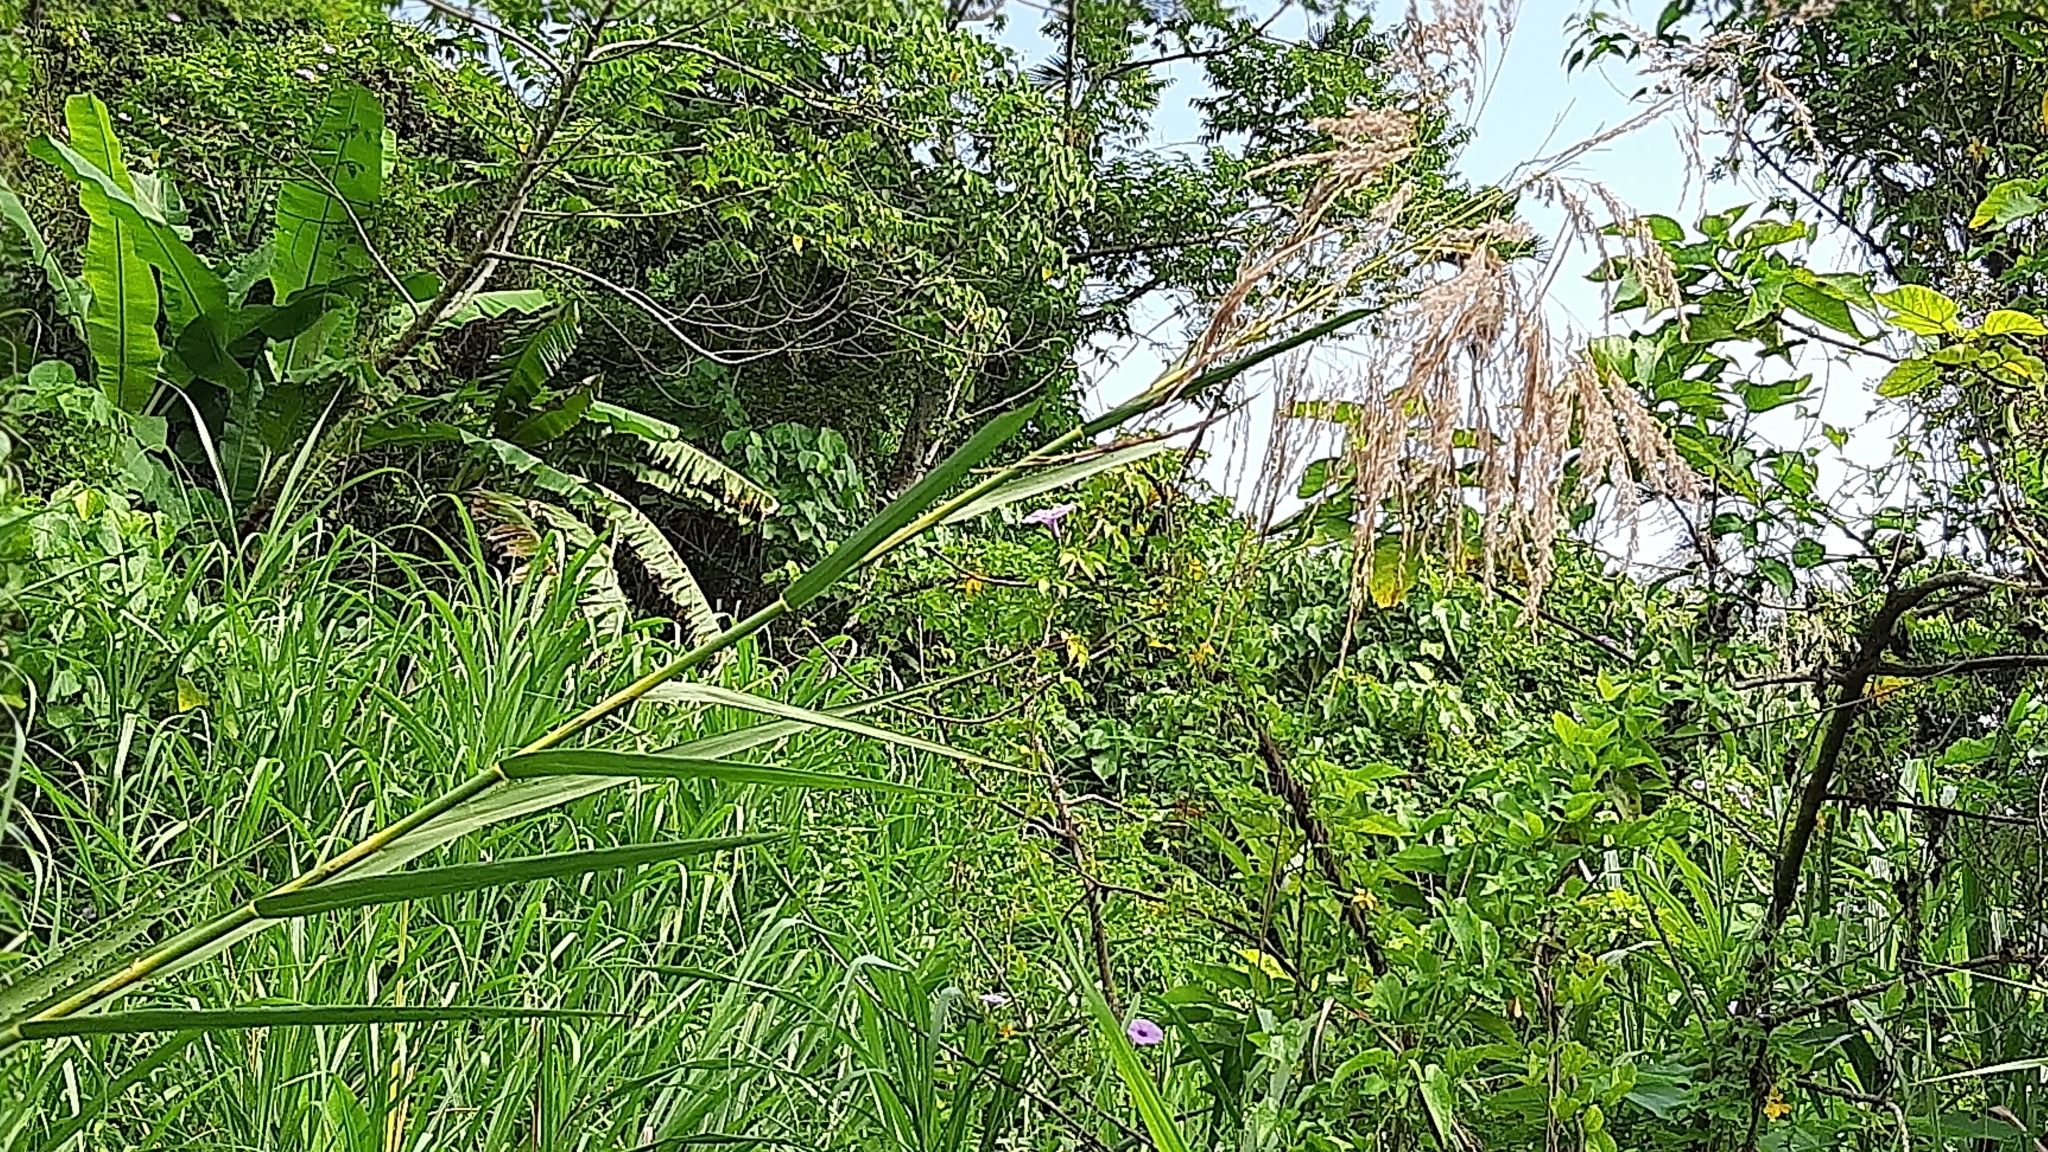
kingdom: Plantae
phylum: Tracheophyta
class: Liliopsida
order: Poales
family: Poaceae
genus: Phragmites
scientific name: Phragmites karka
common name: Tropical reed
